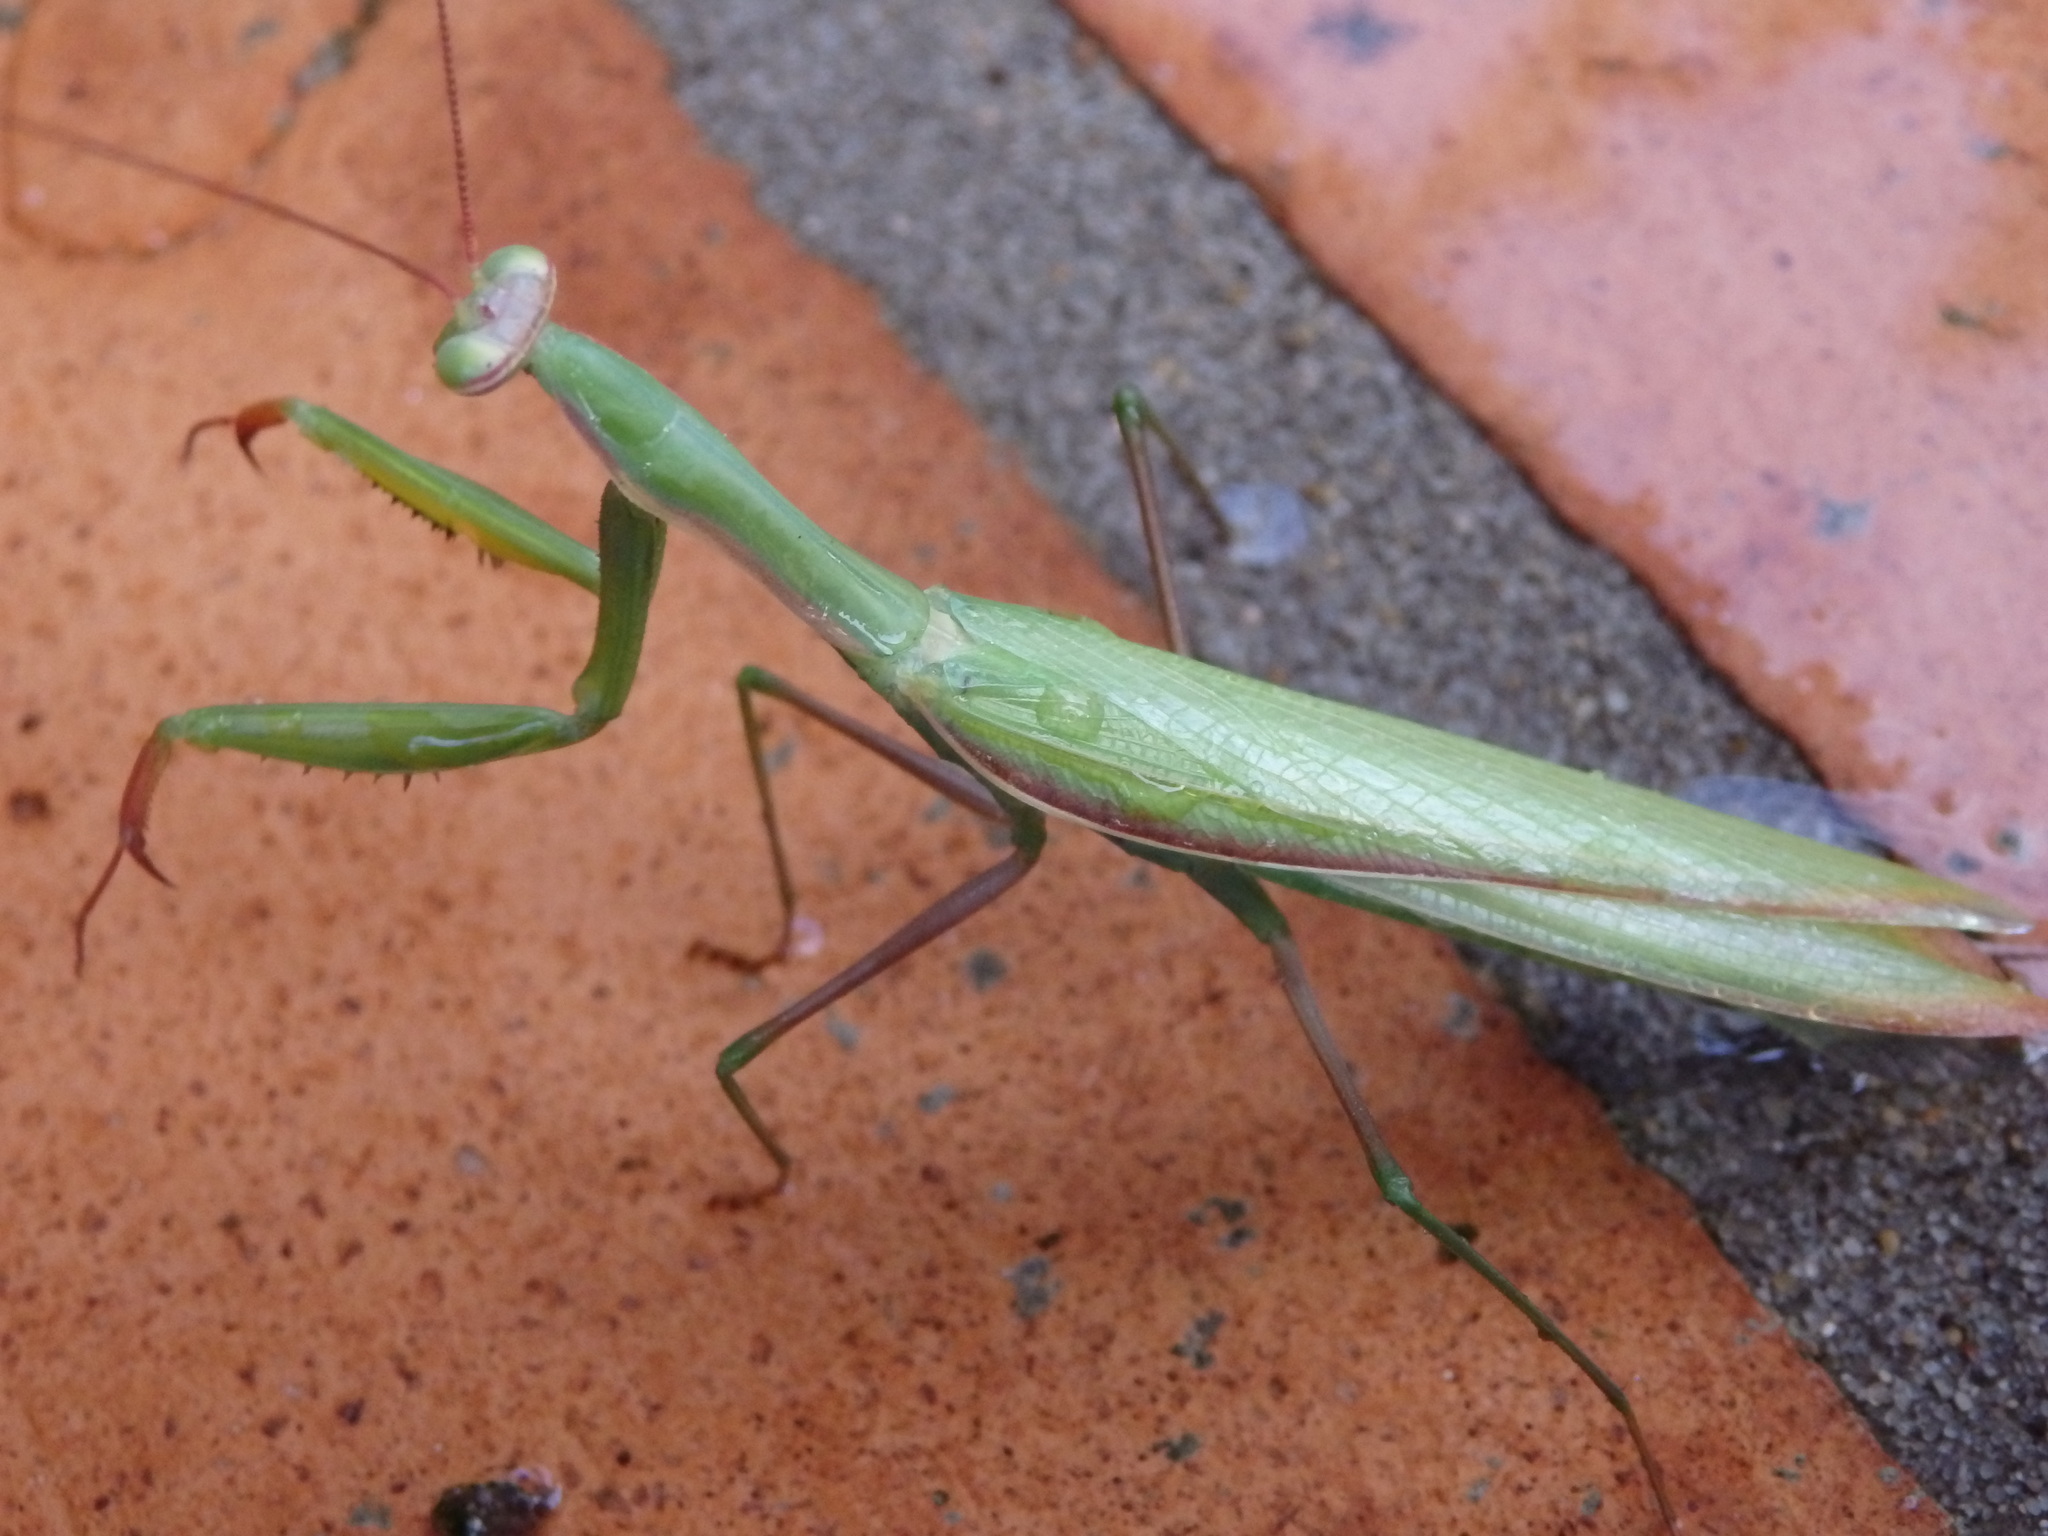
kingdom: Animalia
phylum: Arthropoda
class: Insecta
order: Mantodea
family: Mantidae
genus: Mantis
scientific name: Mantis religiosa
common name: Praying mantis
